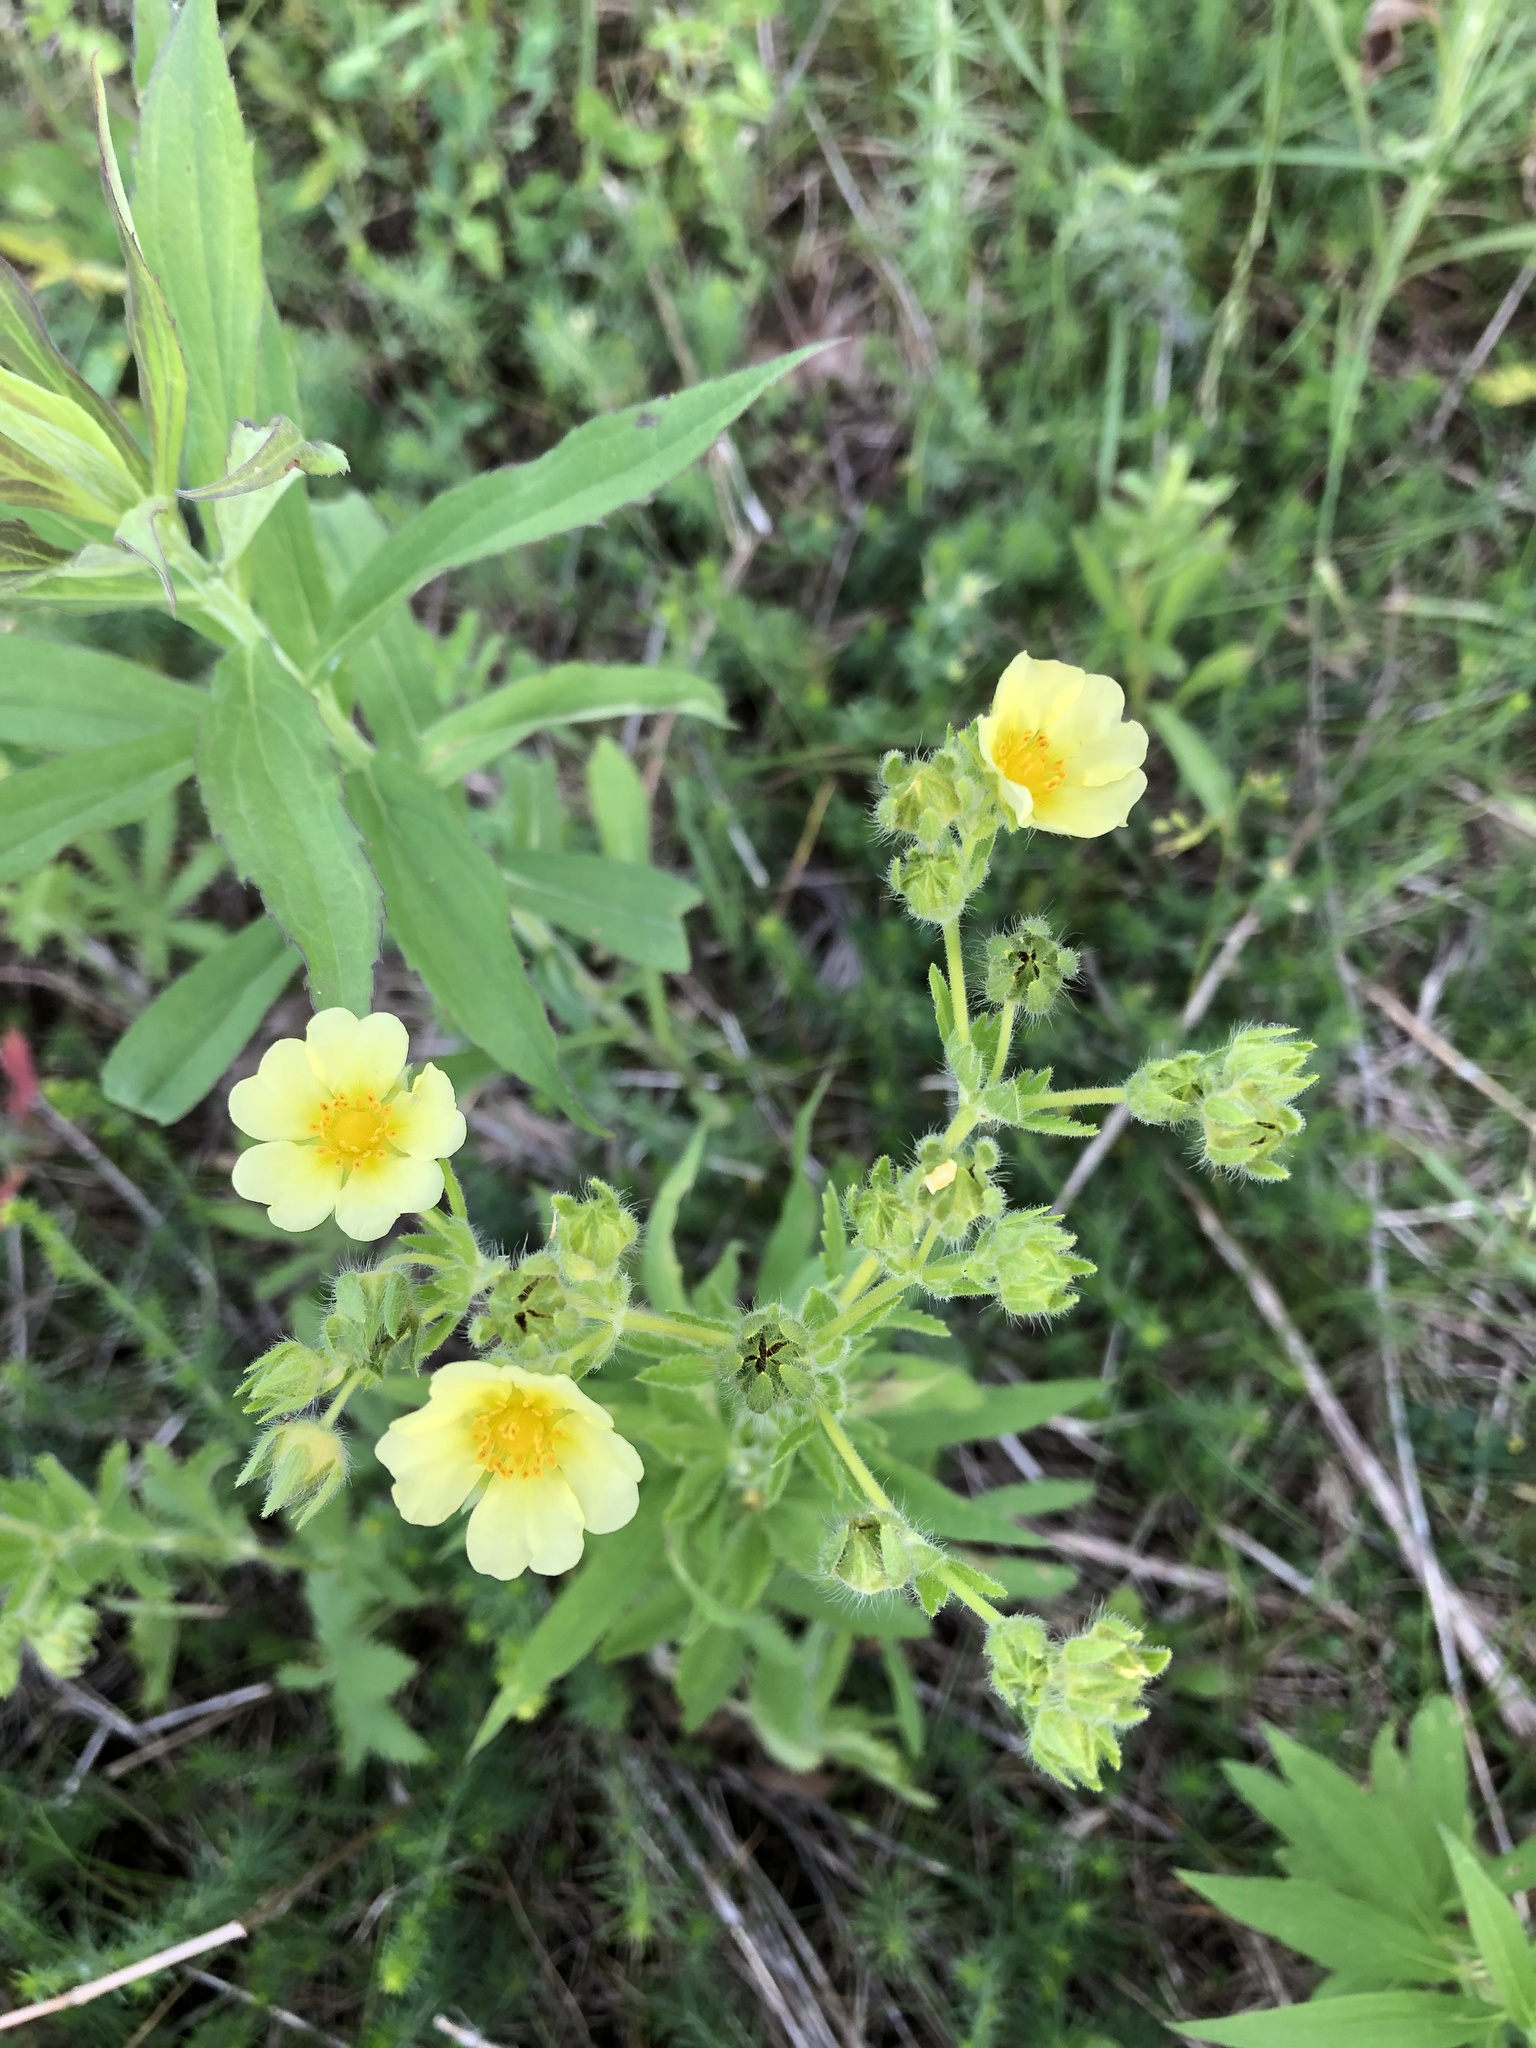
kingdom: Plantae
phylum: Tracheophyta
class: Magnoliopsida
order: Rosales
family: Rosaceae
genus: Potentilla
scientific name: Potentilla recta
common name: Sulphur cinquefoil
